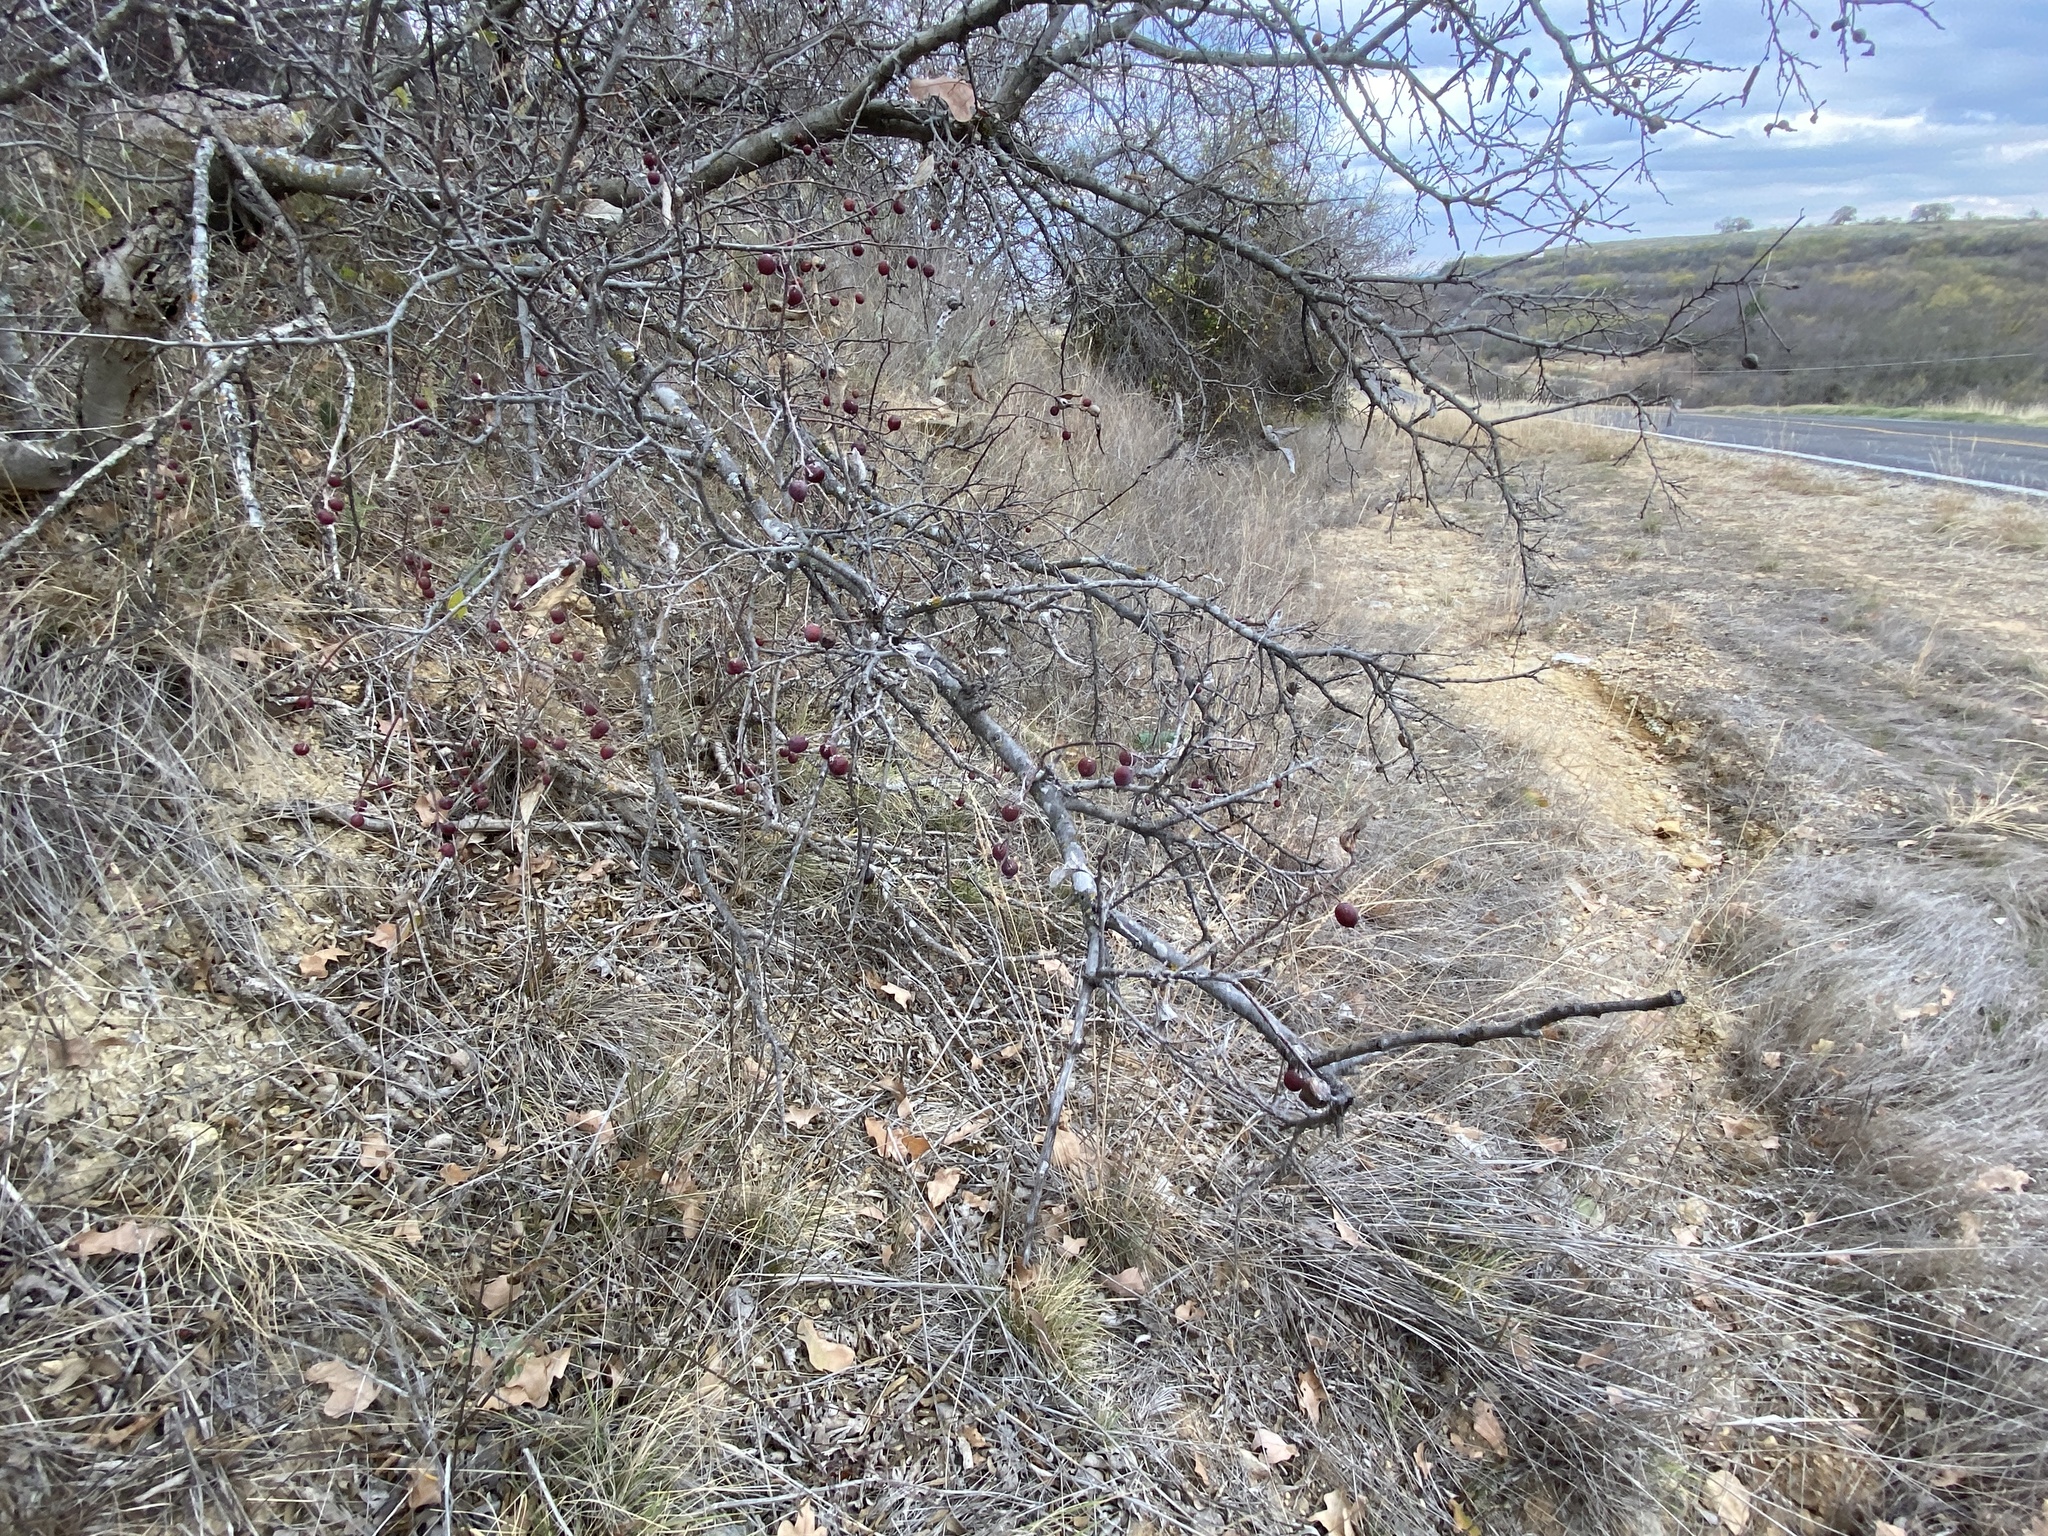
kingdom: Plantae
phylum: Tracheophyta
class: Magnoliopsida
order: Rosales
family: Cannabaceae
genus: Celtis
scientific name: Celtis laevigata
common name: Sugarberry
